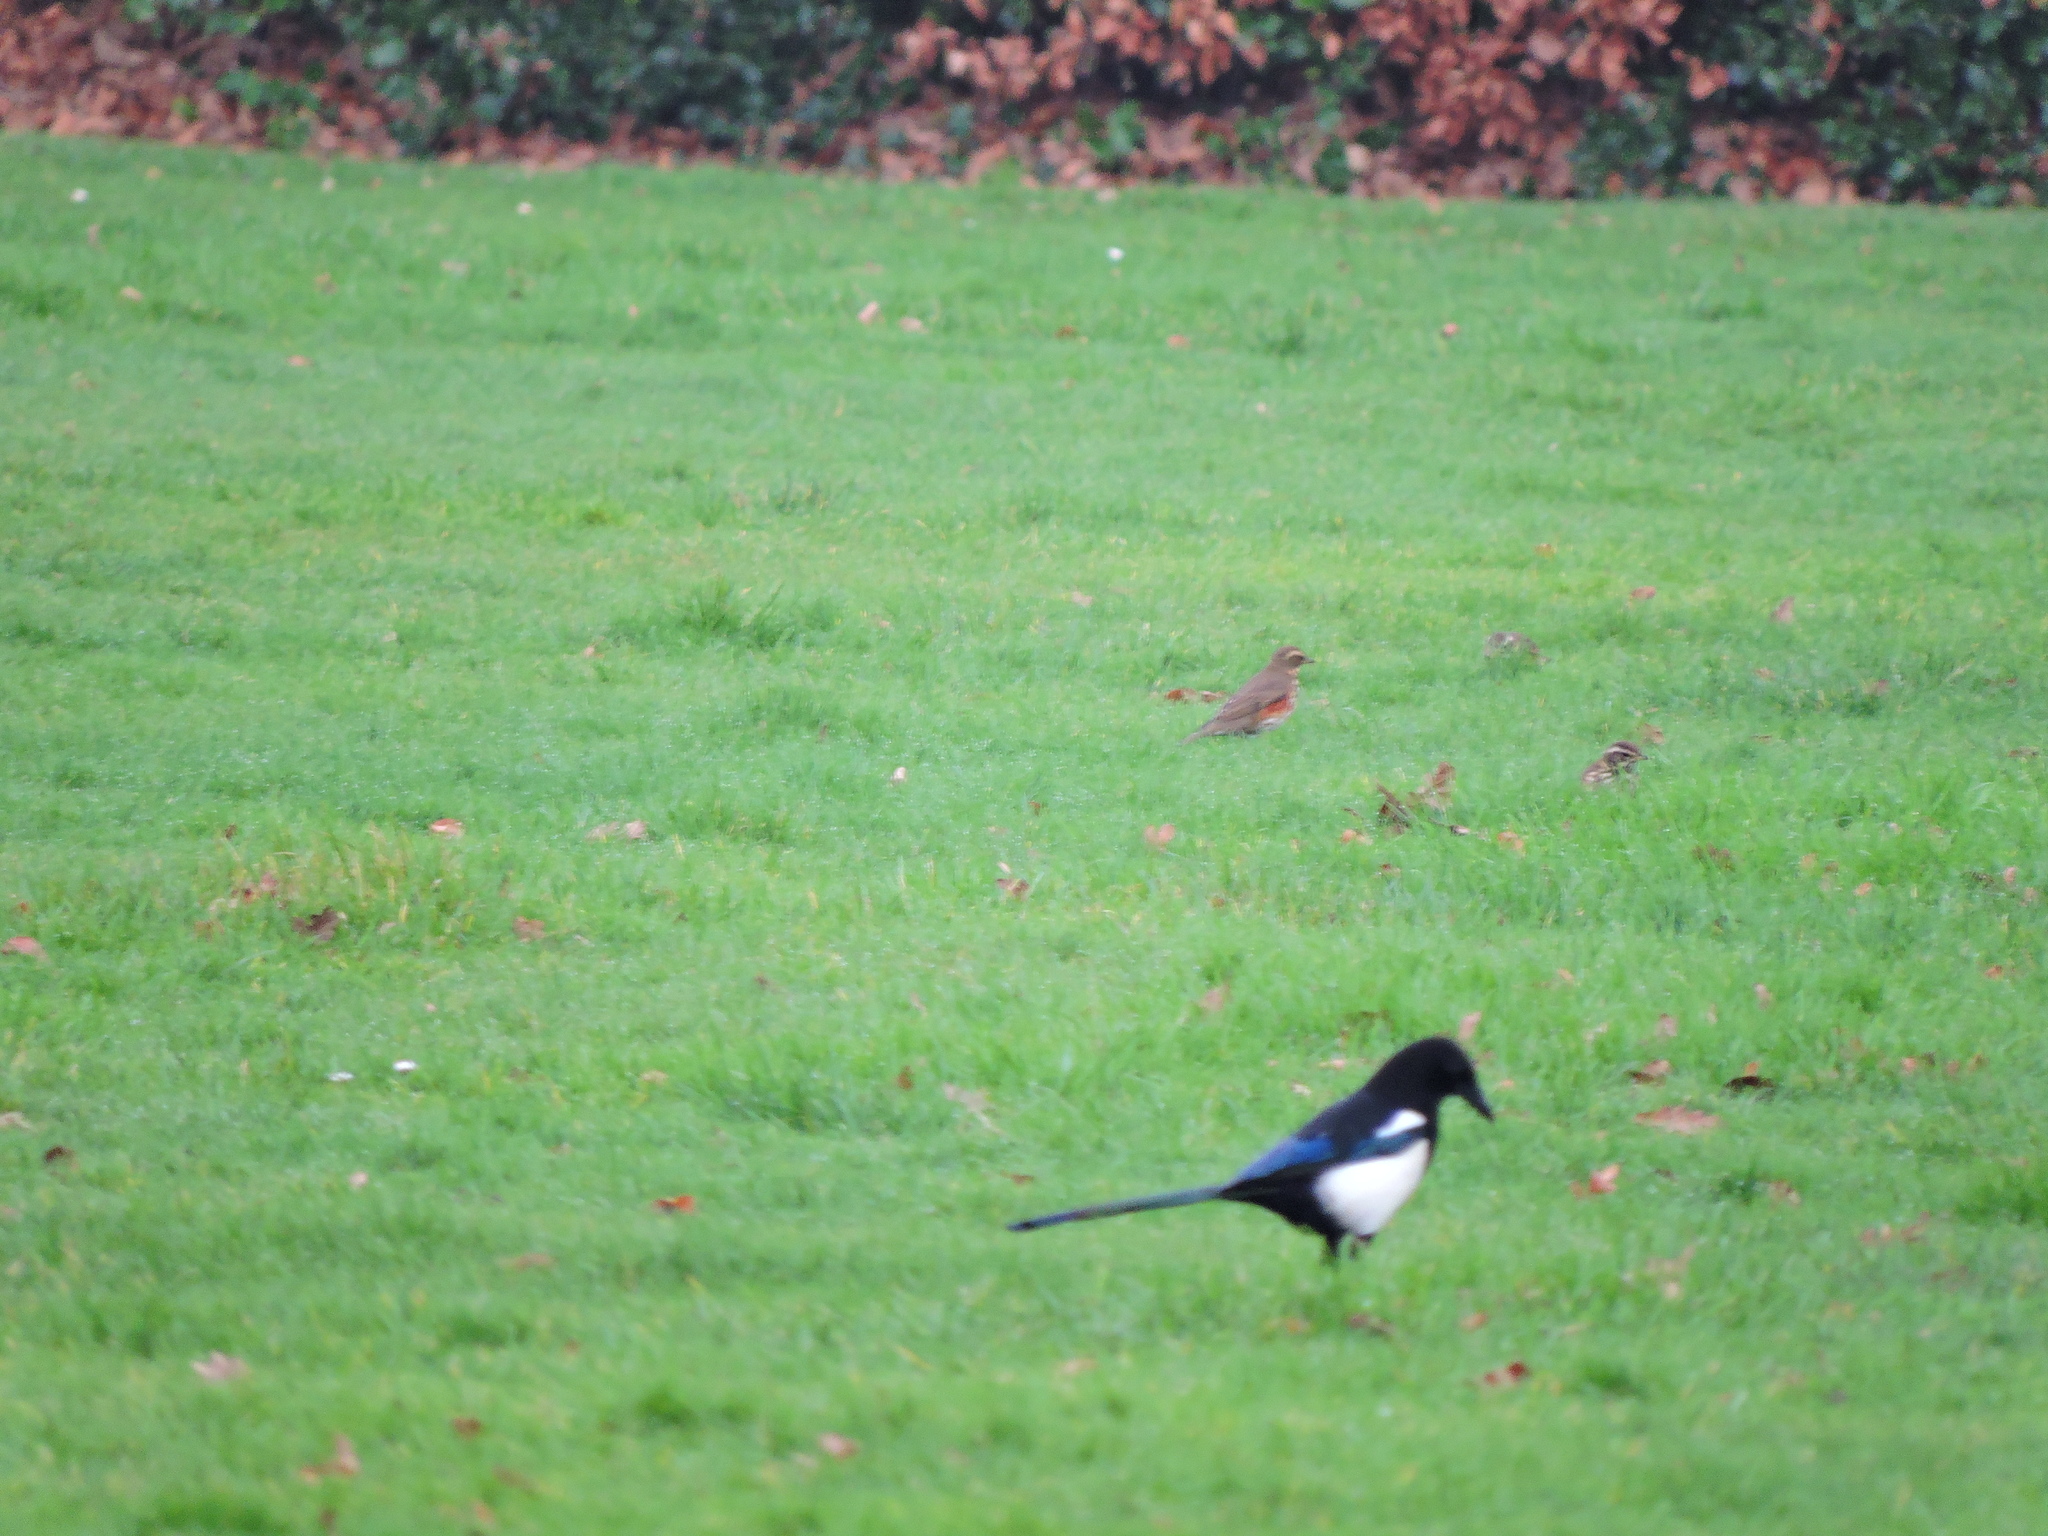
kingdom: Animalia
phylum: Chordata
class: Aves
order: Passeriformes
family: Corvidae
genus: Pica
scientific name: Pica pica
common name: Eurasian magpie
